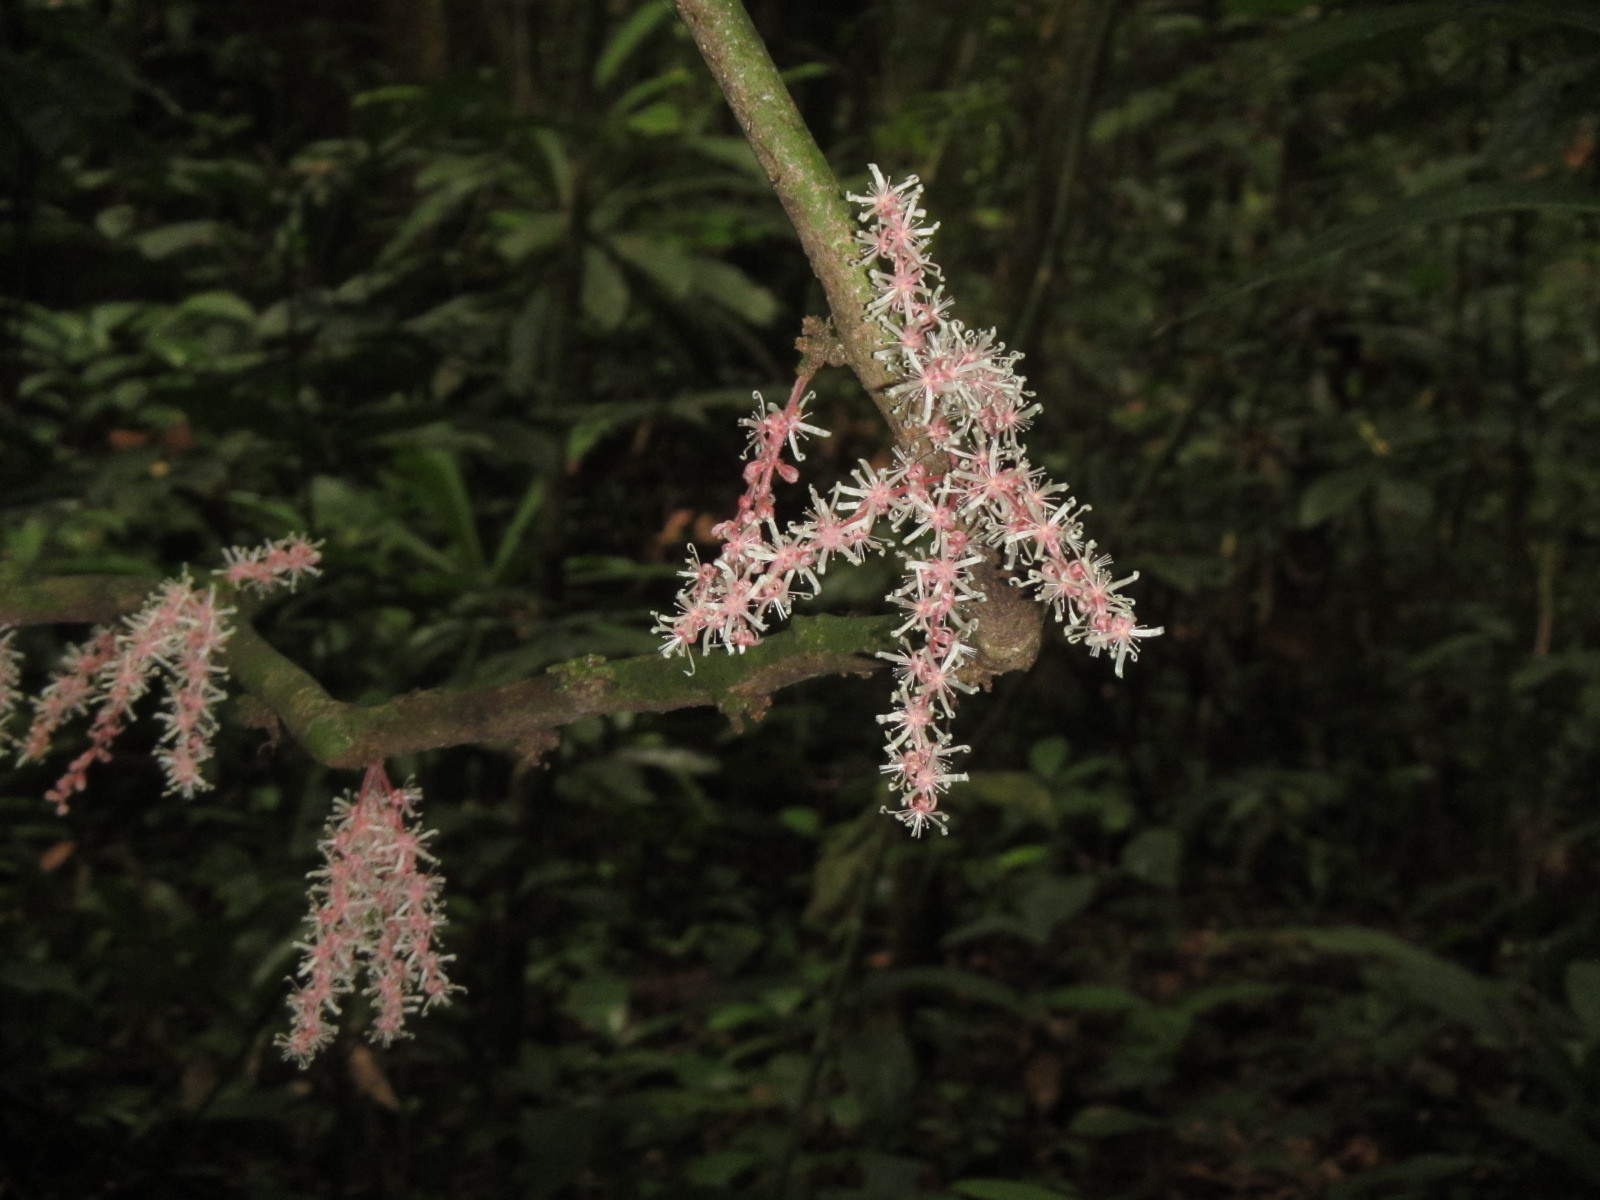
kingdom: Plantae
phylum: Tracheophyta
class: Magnoliopsida
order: Oxalidales
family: Connaraceae
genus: Cnestis
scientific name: Cnestis corniculata
